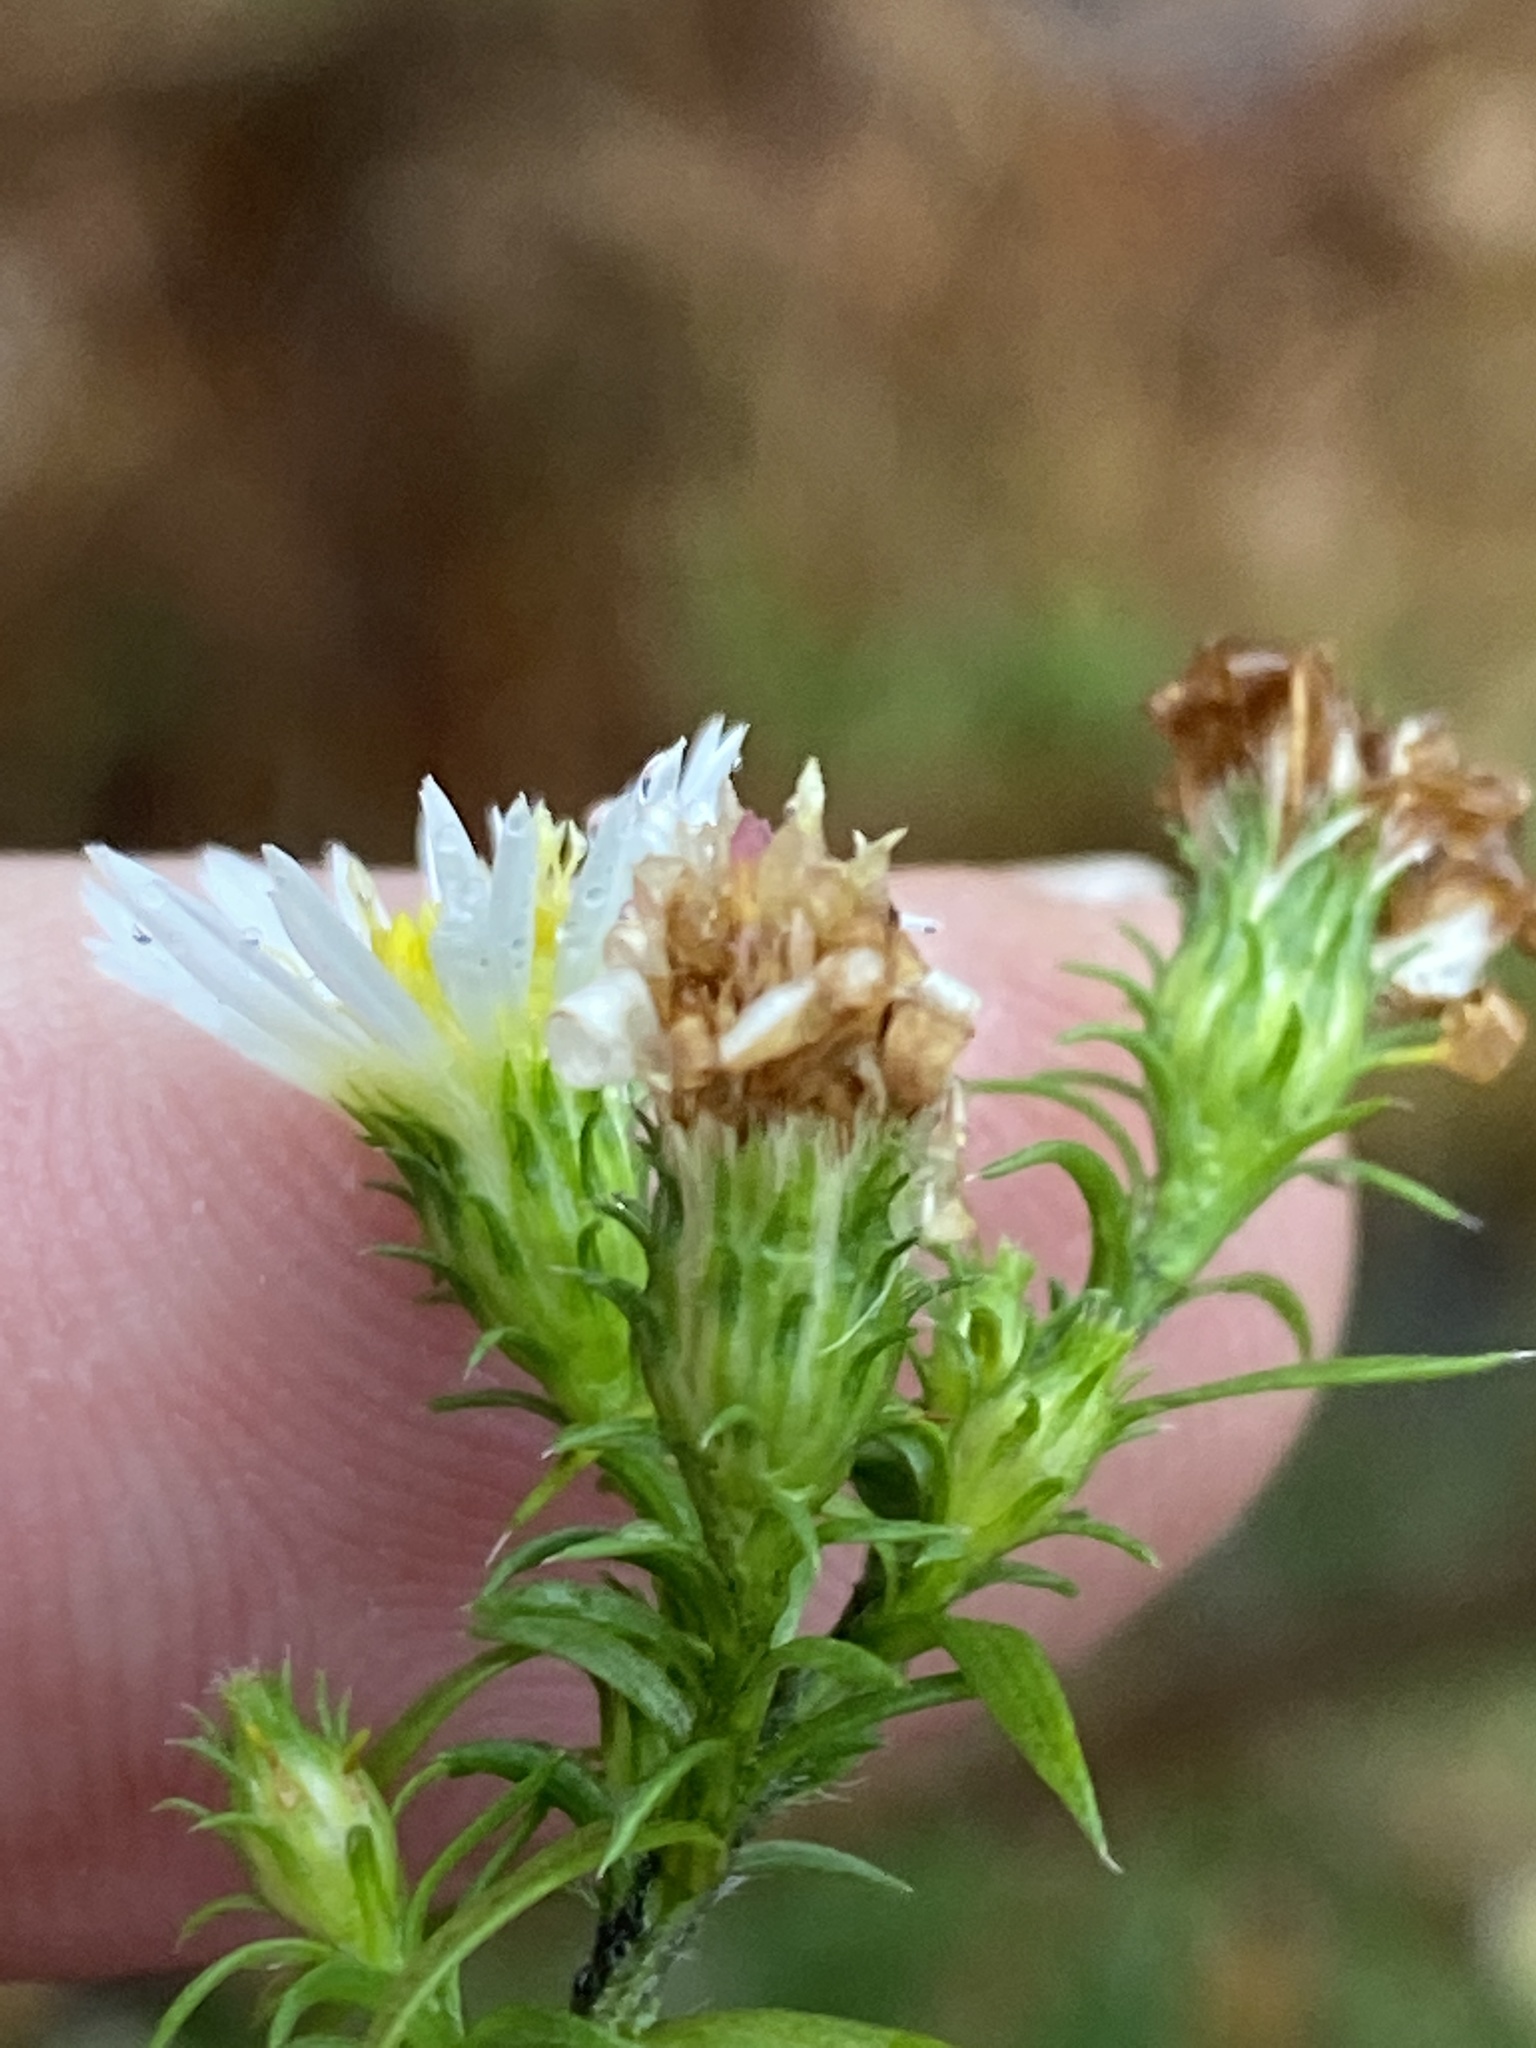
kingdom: Plantae
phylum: Tracheophyta
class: Magnoliopsida
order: Asterales
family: Asteraceae
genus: Symphyotrichum
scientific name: Symphyotrichum pilosum
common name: Awl aster
